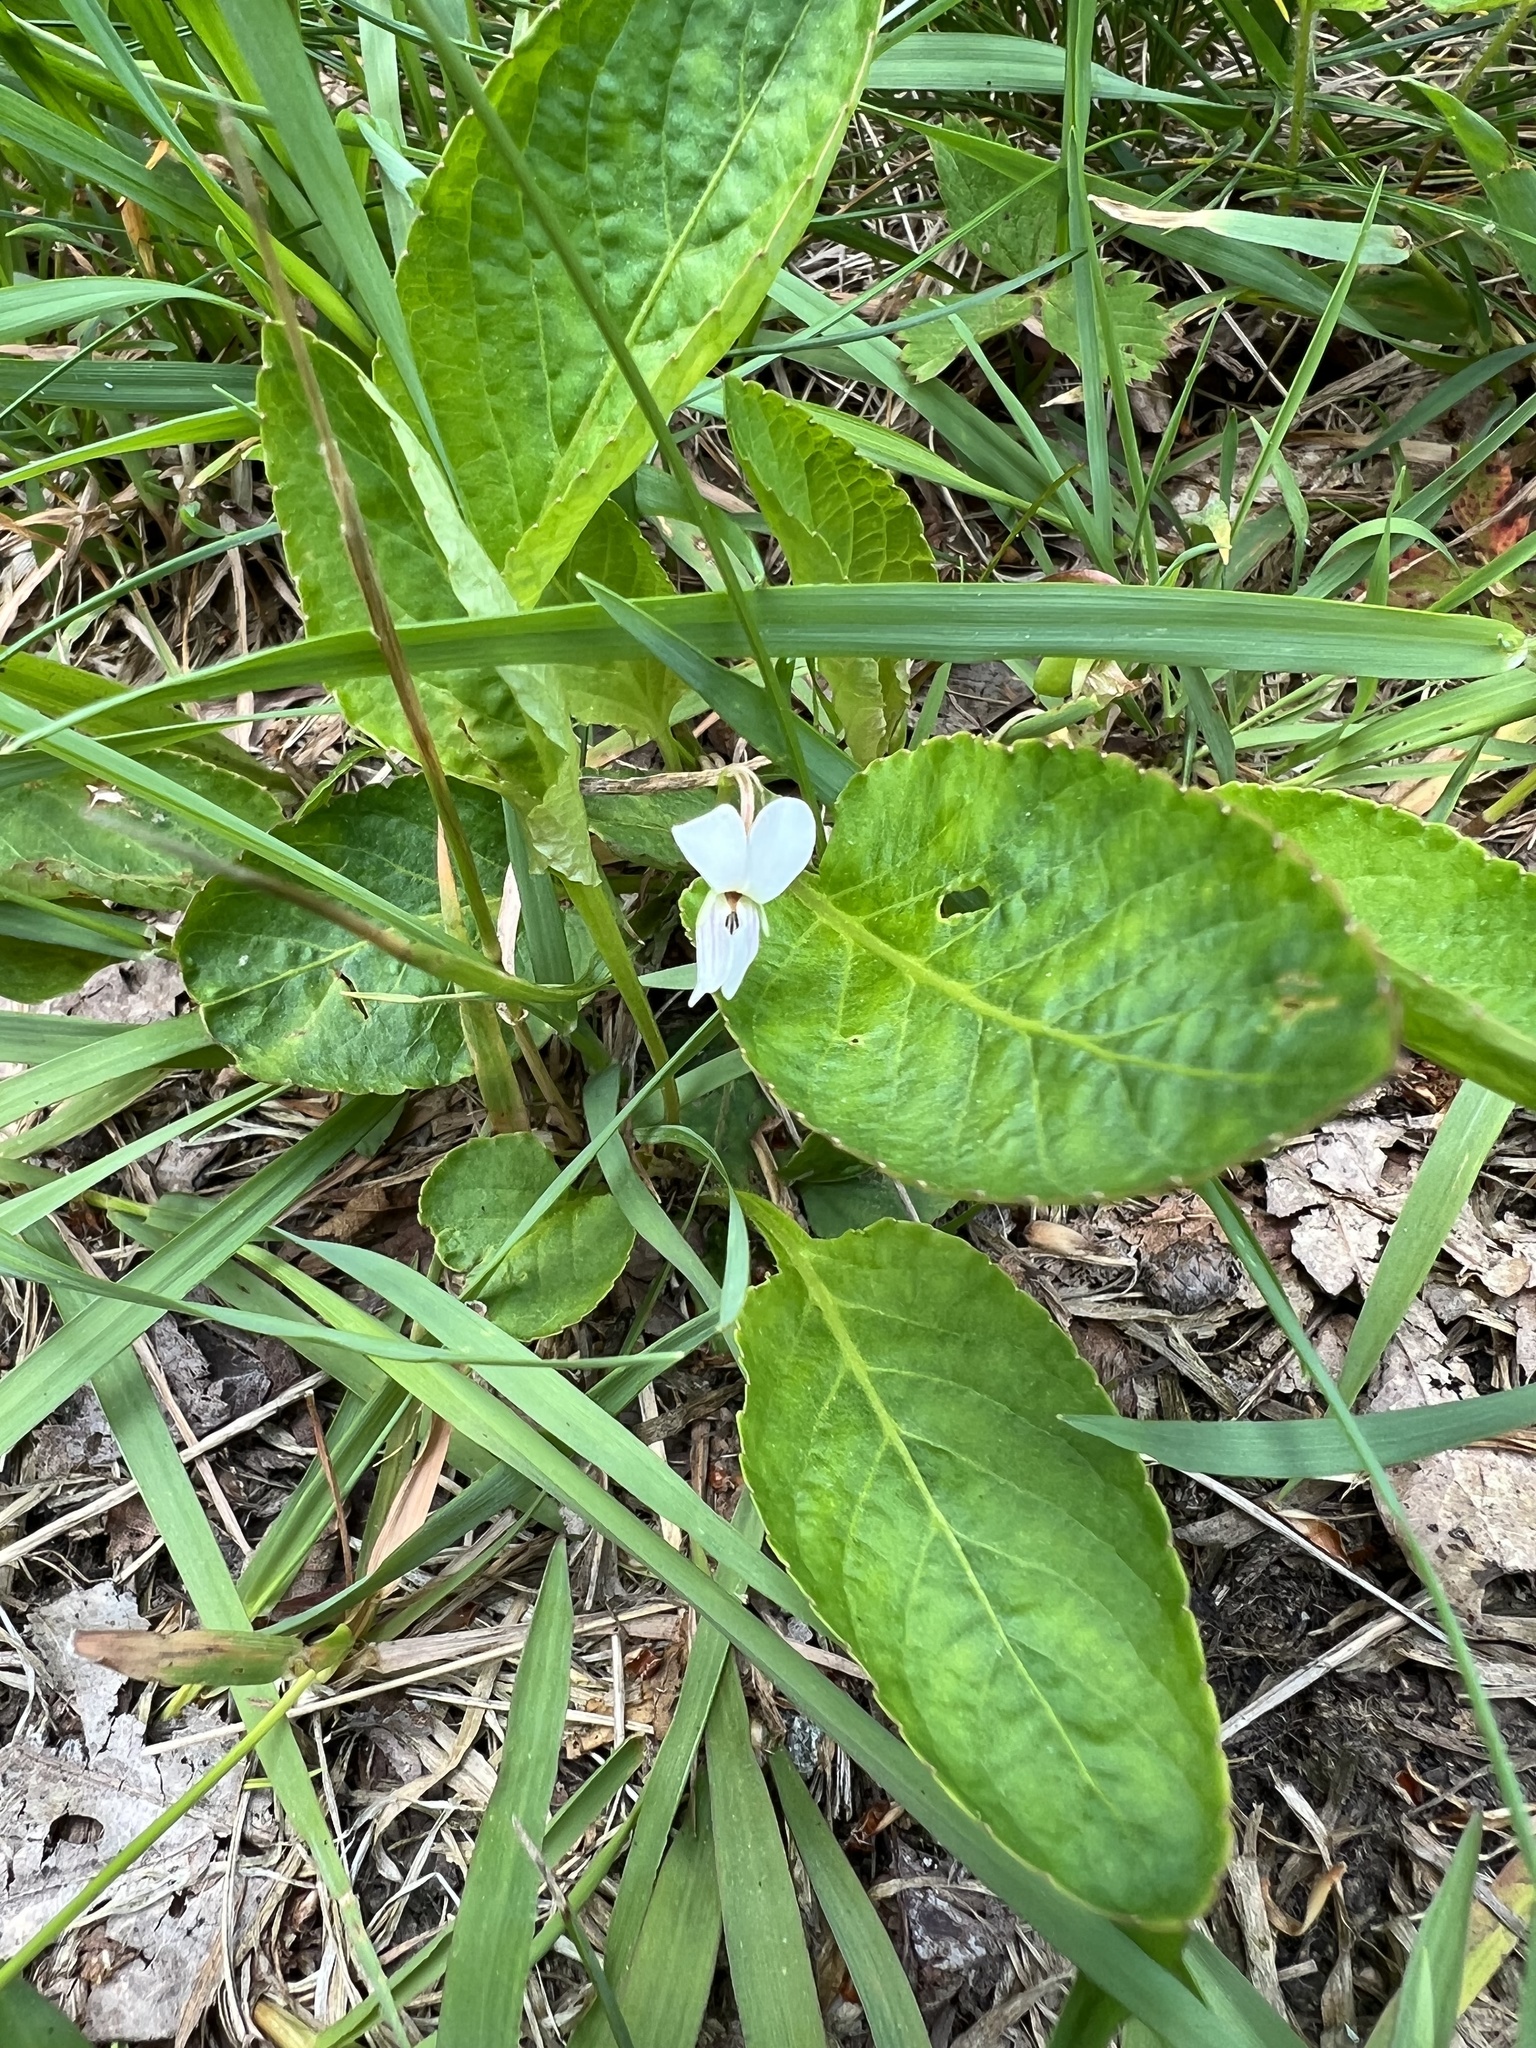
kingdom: Plantae
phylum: Tracheophyta
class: Magnoliopsida
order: Malpighiales
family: Violaceae
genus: Viola
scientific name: Viola primulifolia
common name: Primrose-leaf violet
